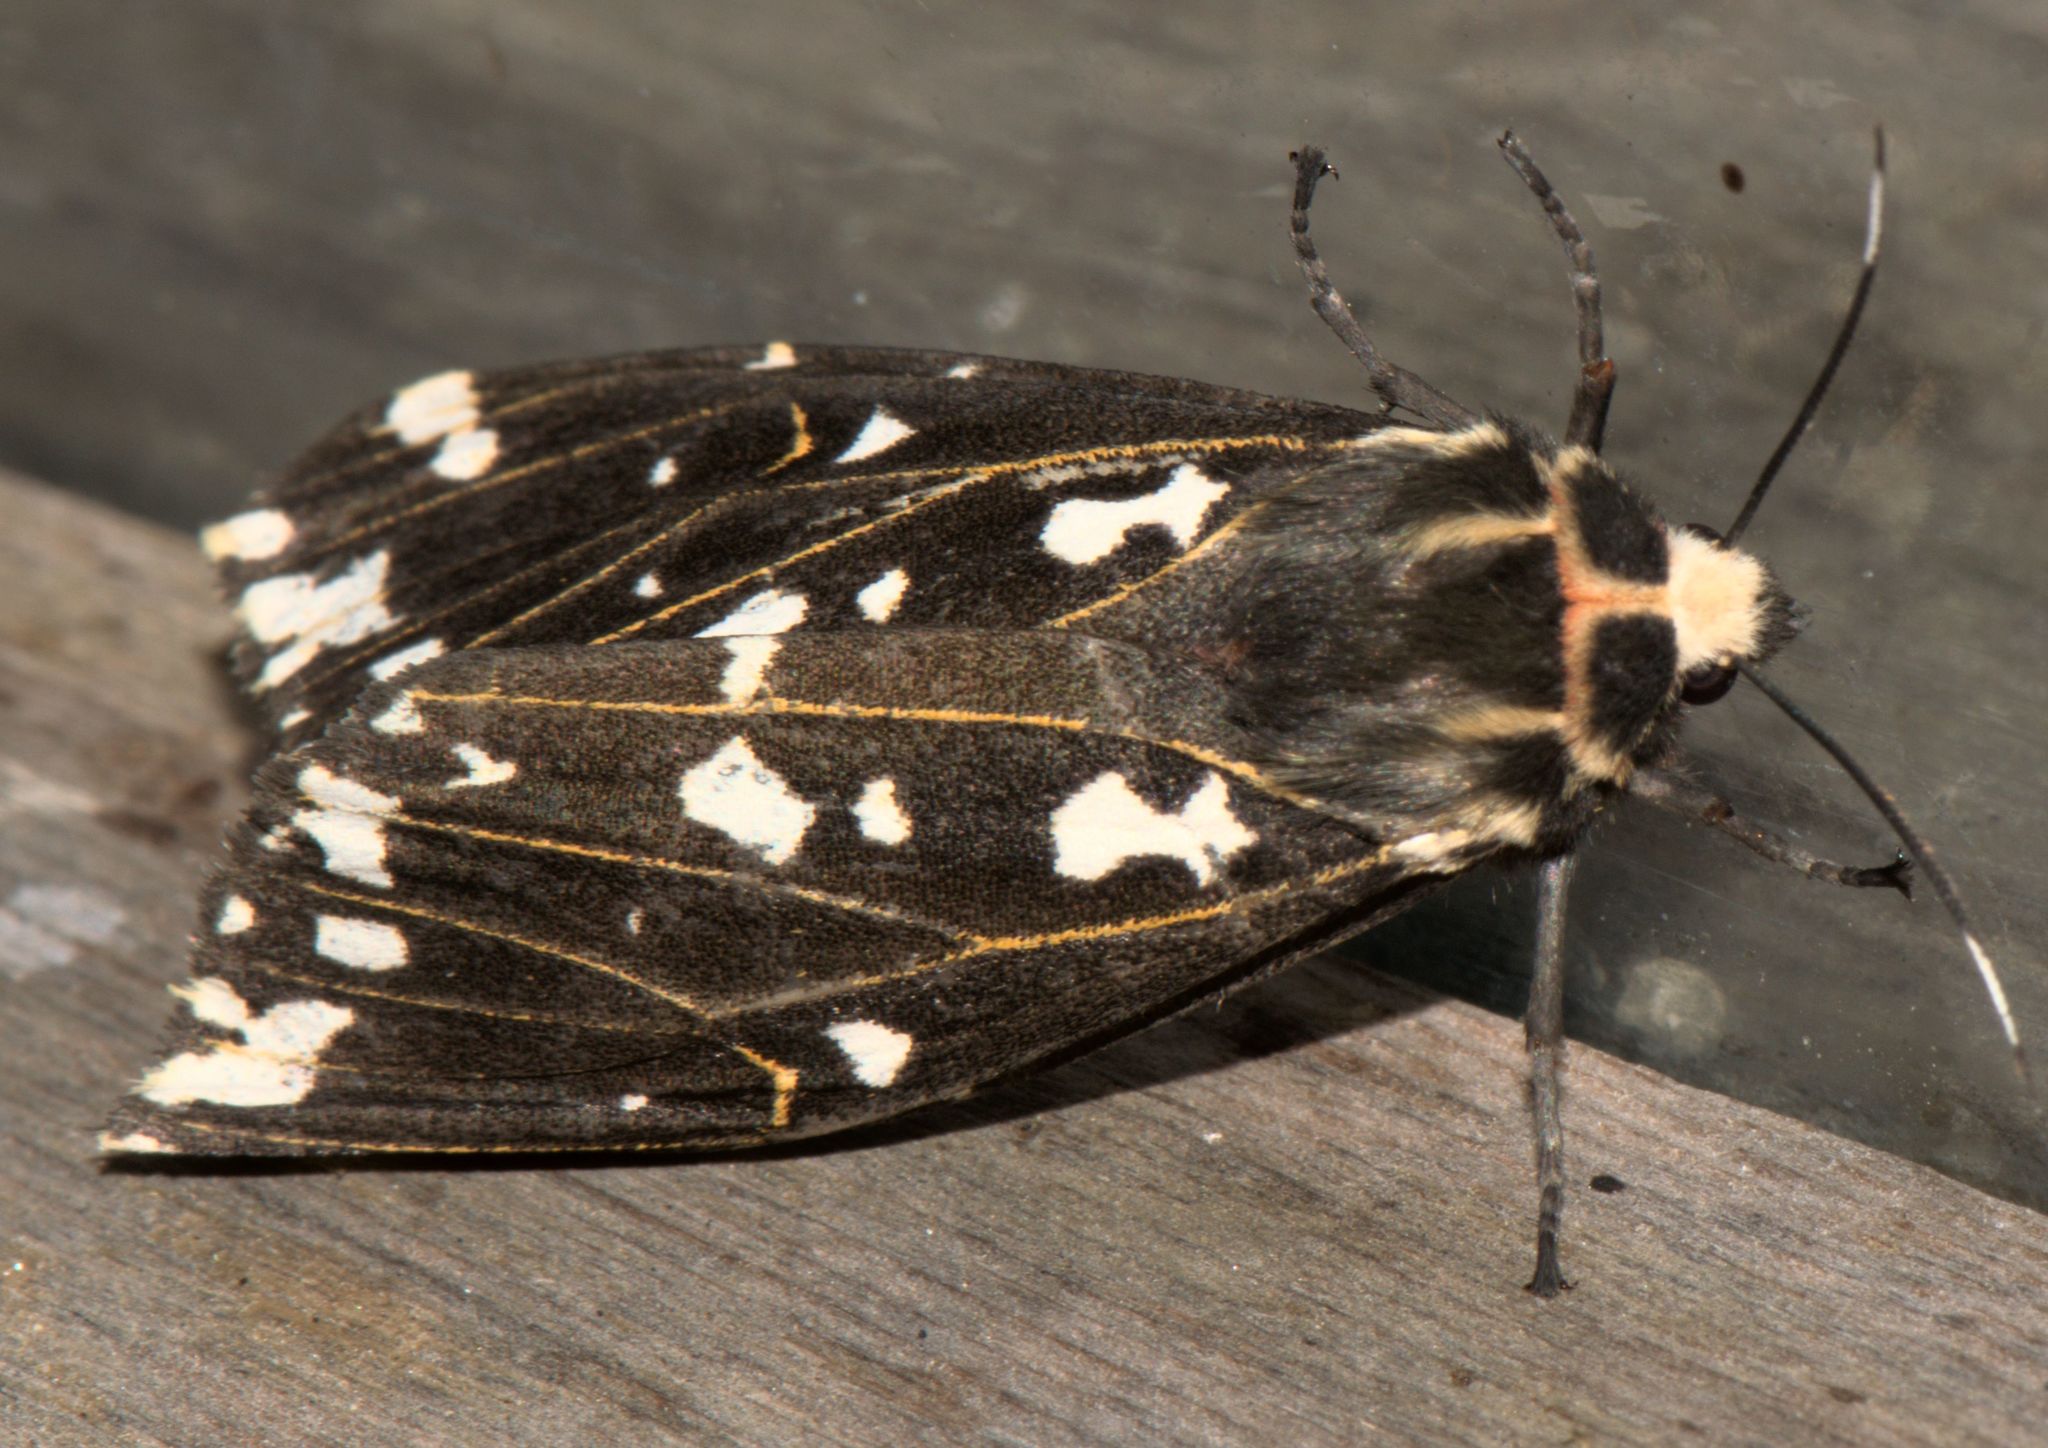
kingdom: Animalia
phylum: Arthropoda
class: Insecta
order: Lepidoptera
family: Erebidae
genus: Alphaea
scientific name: Alphaea imbuta
